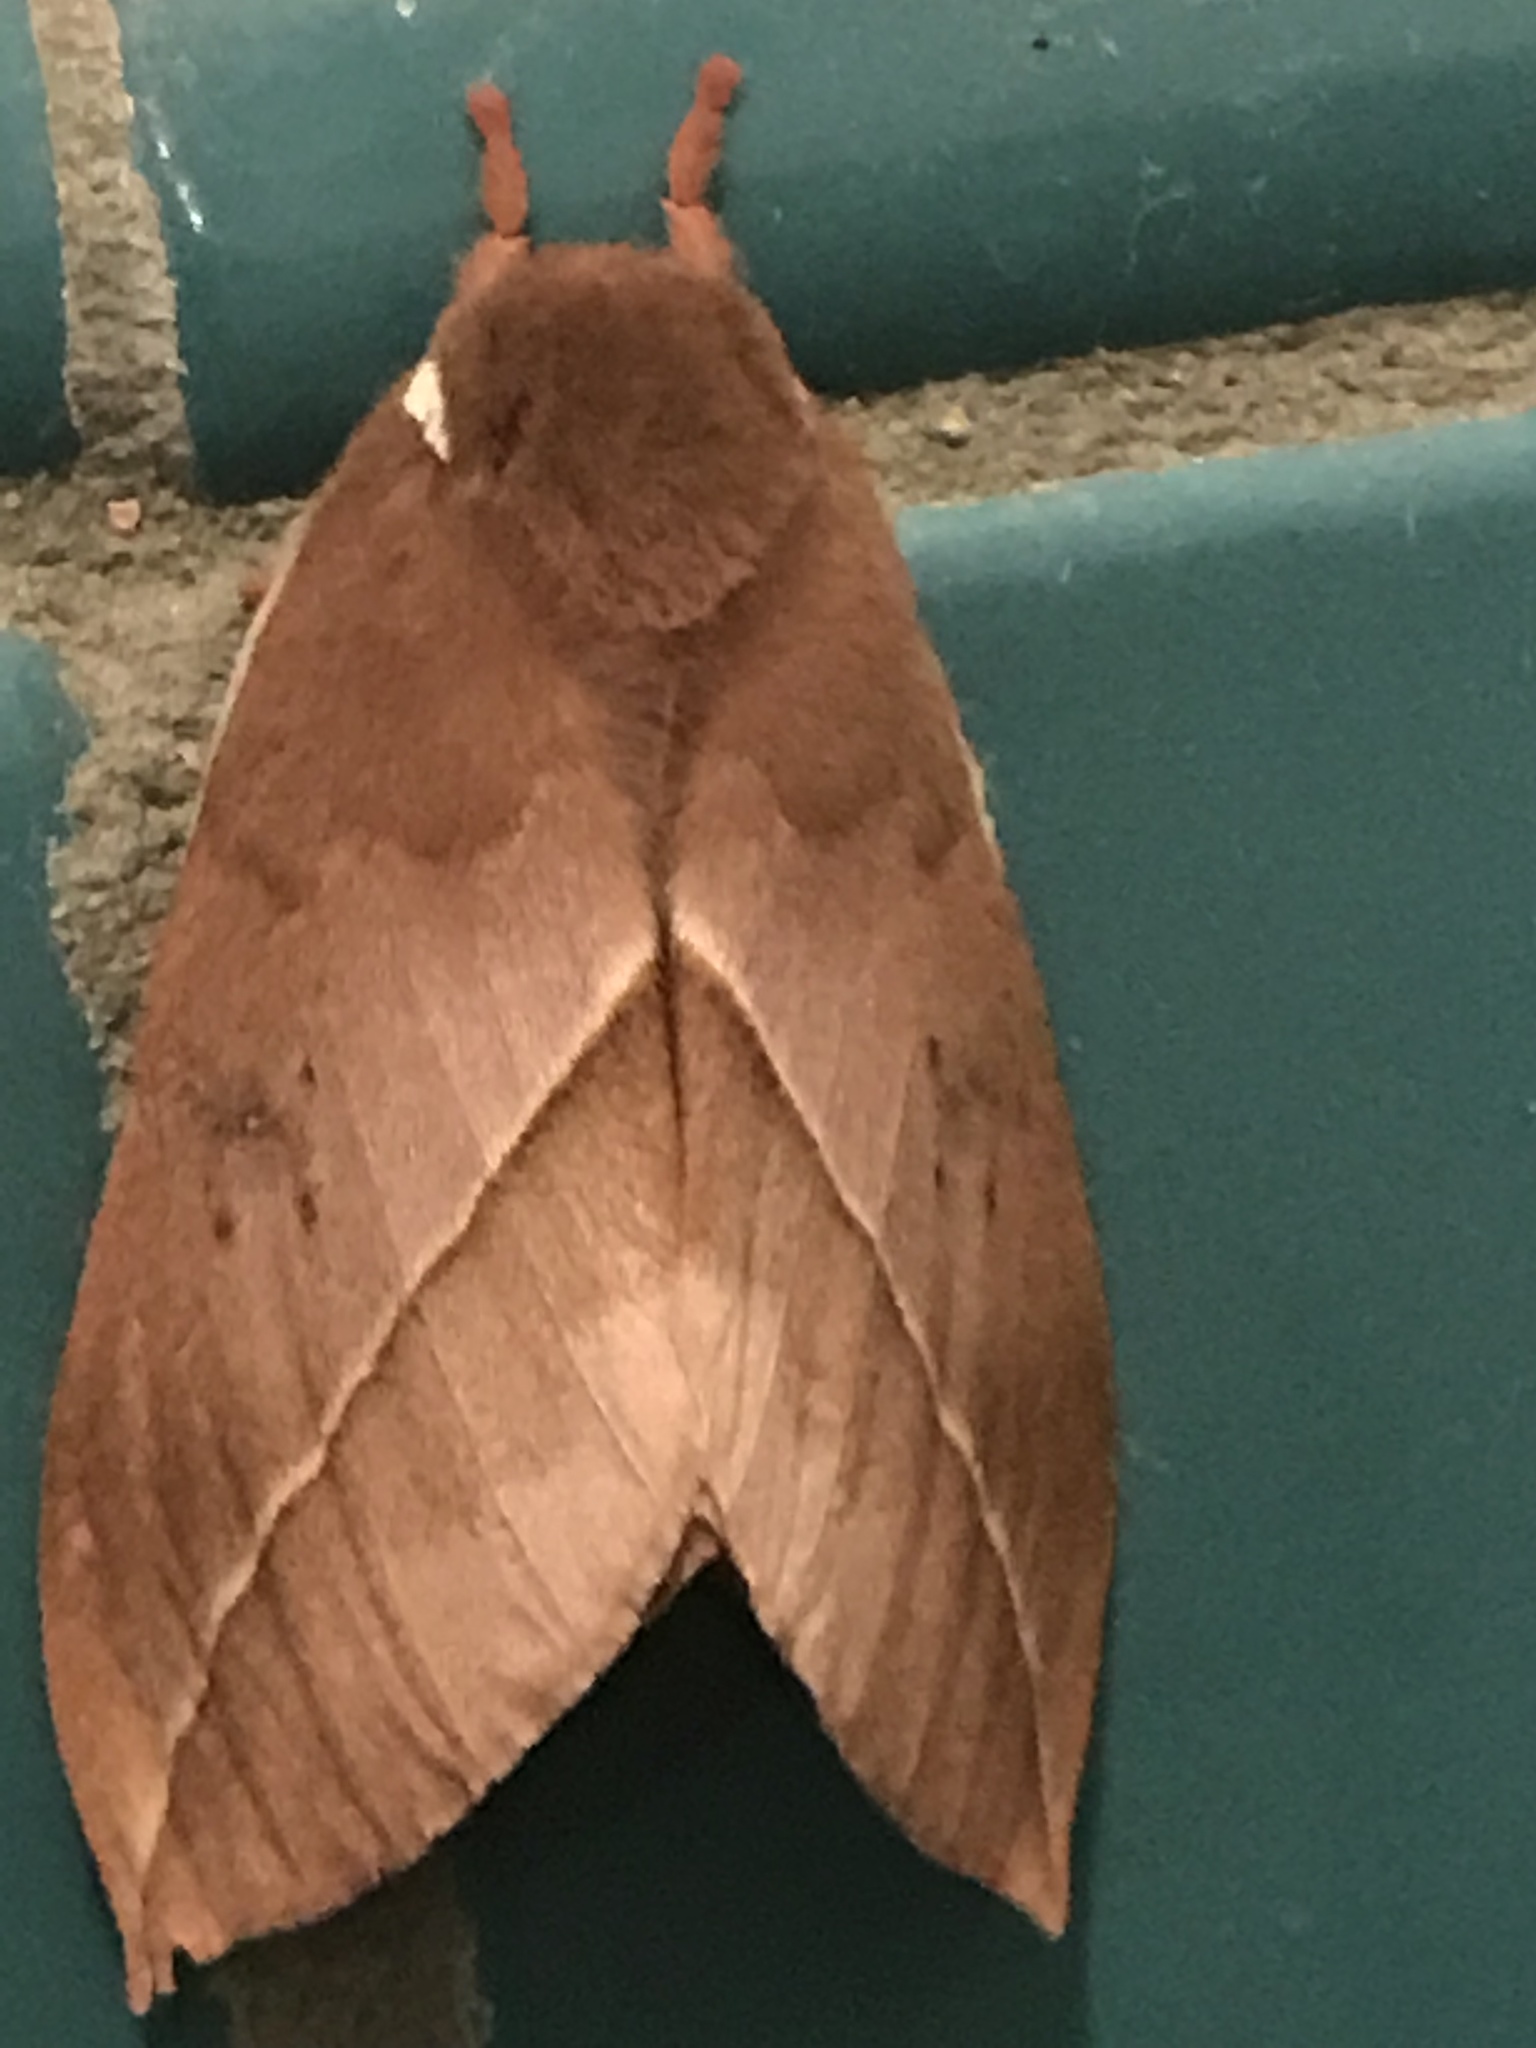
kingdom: Animalia
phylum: Arthropoda
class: Insecta
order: Lepidoptera
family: Saturniidae
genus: Automeris
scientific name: Automeris cecrops
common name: Cecrops eyed silkmoth
